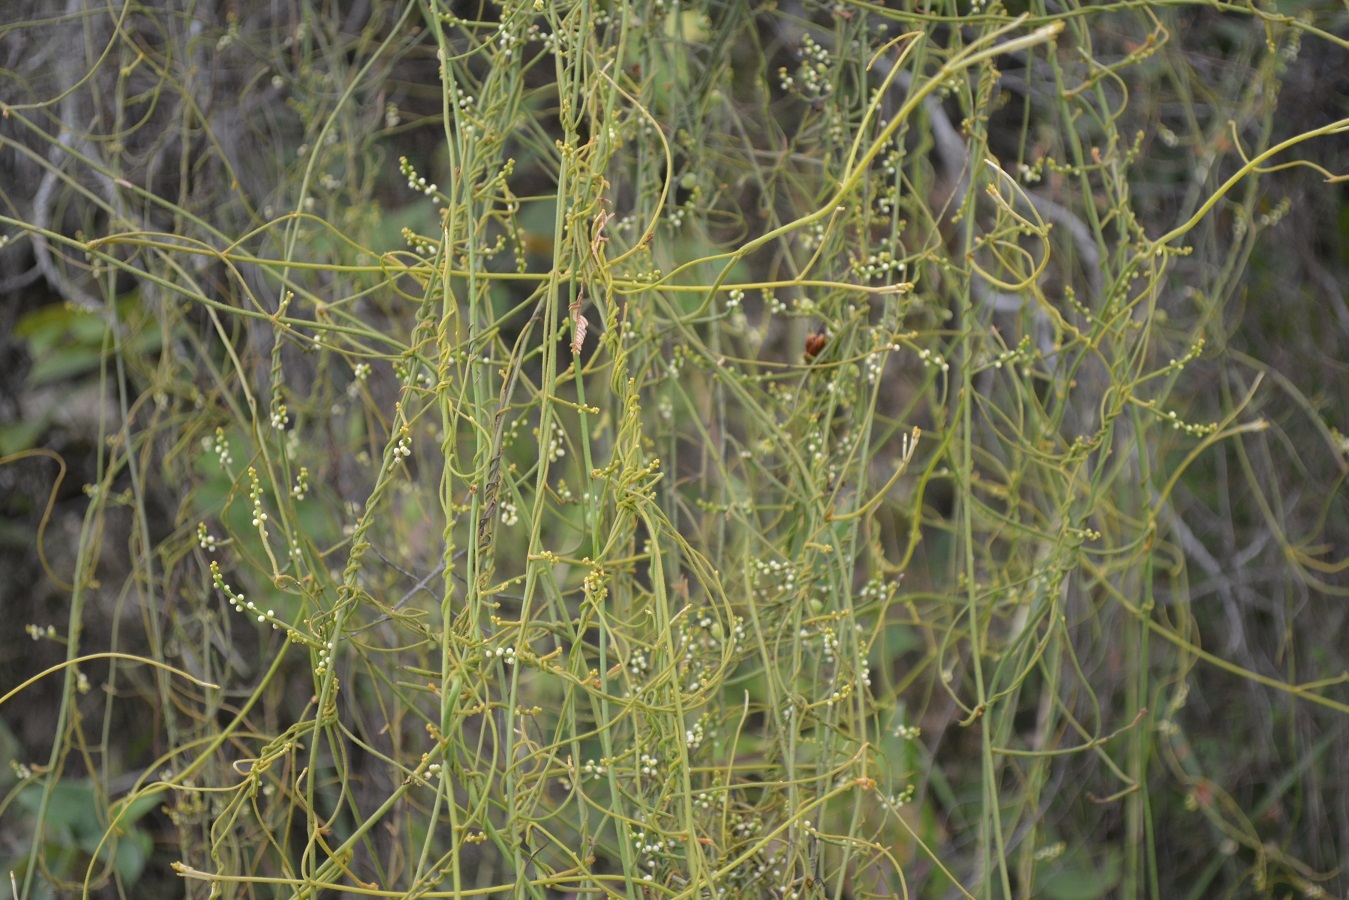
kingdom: Plantae
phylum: Tracheophyta
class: Magnoliopsida
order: Laurales
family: Lauraceae
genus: Cassytha
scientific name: Cassytha filiformis
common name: Dodder-laurel
